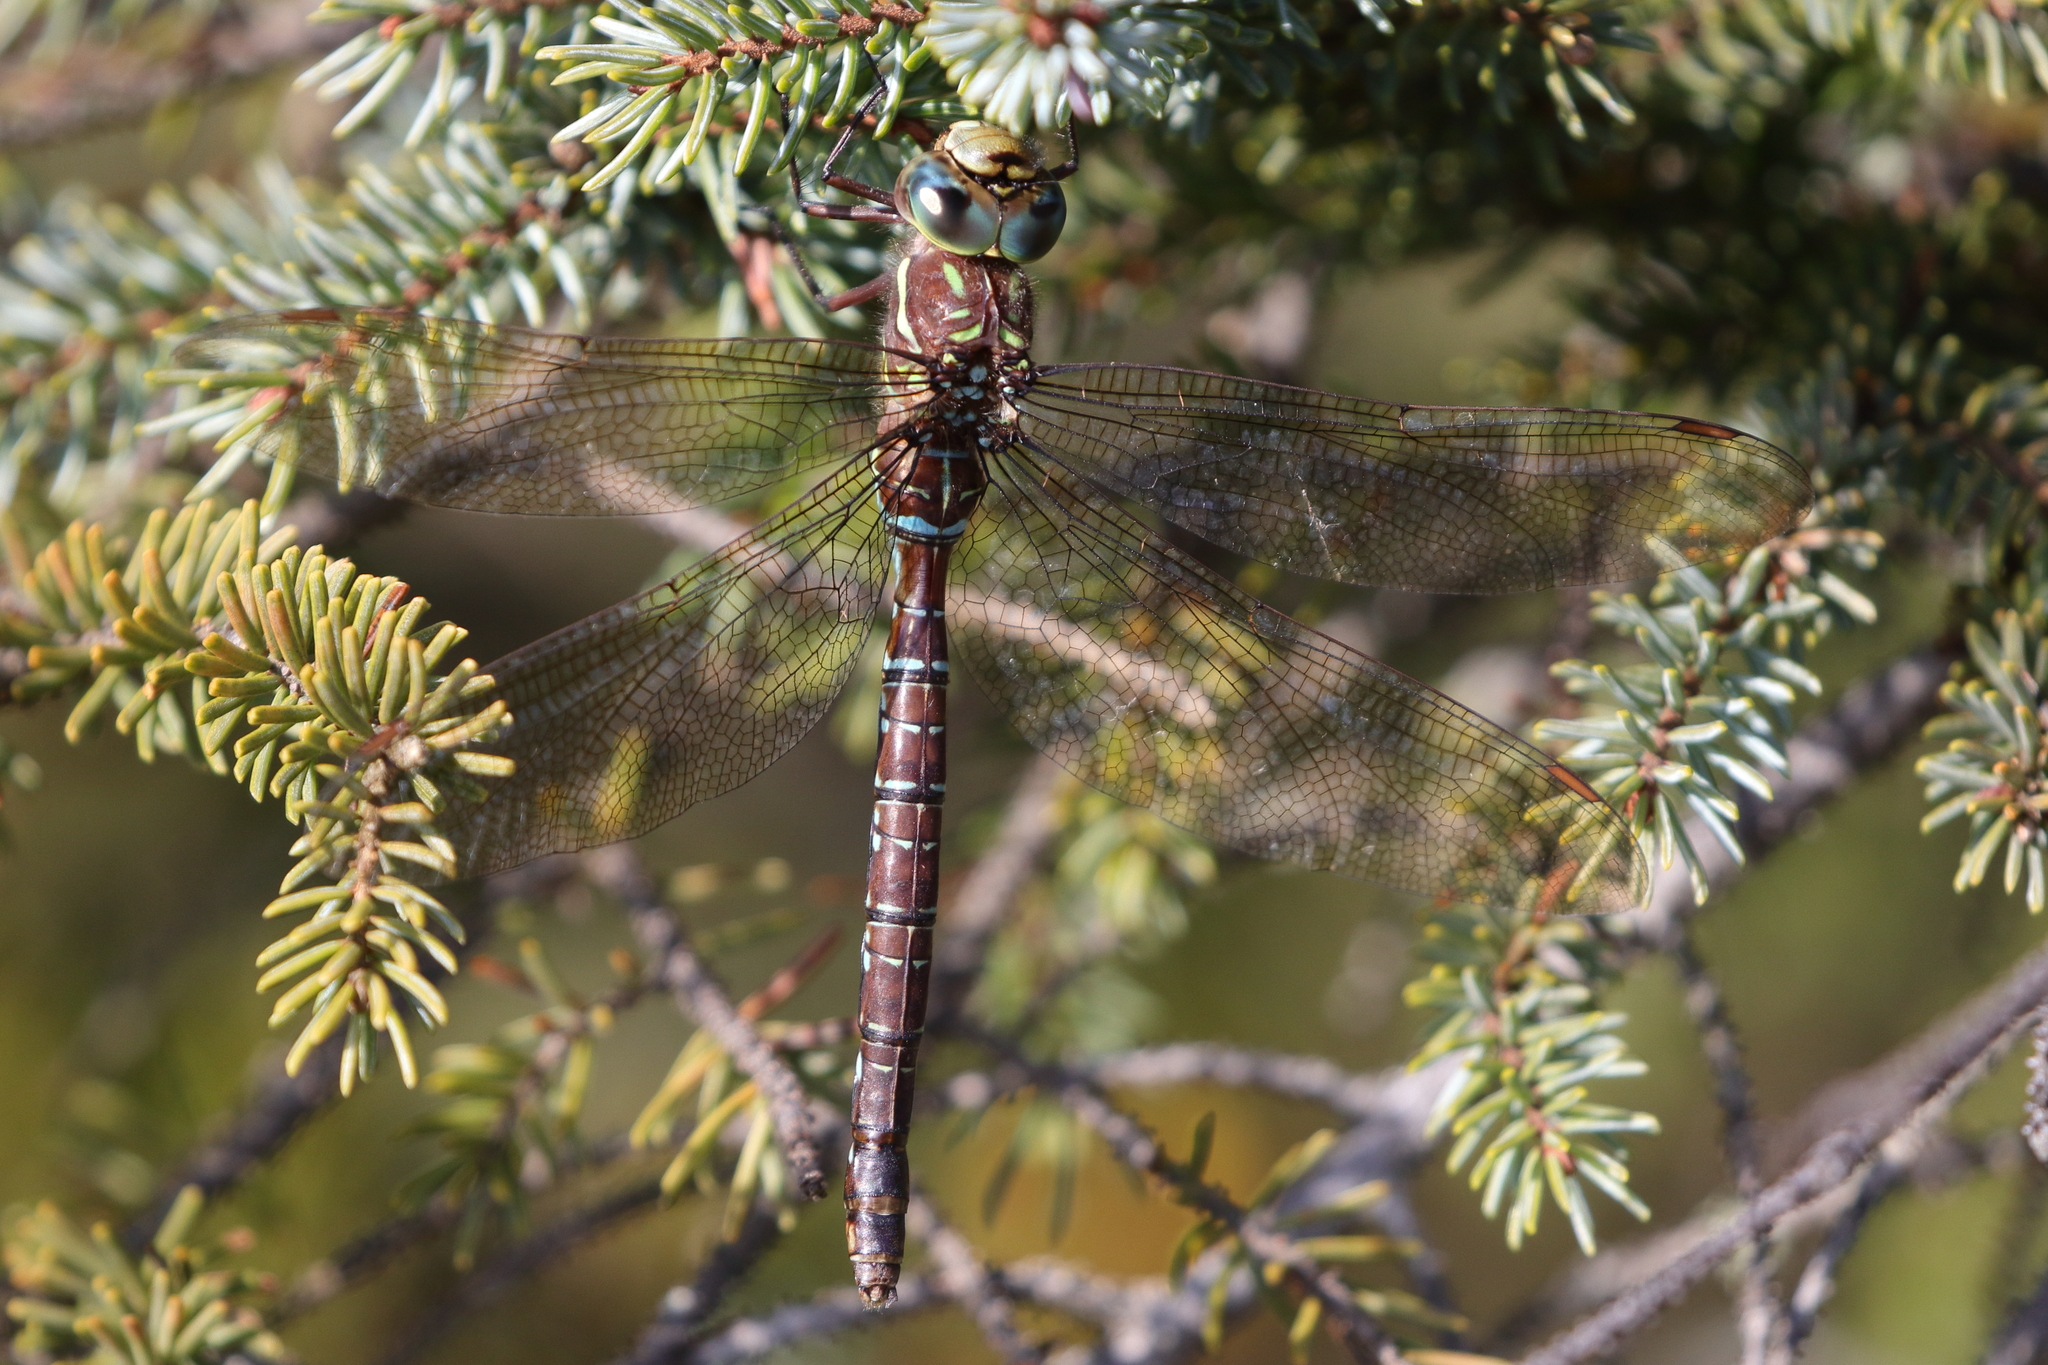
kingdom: Animalia
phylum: Arthropoda
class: Insecta
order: Odonata
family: Aeshnidae
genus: Aeshna
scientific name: Aeshna umbrosa
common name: Shadow darner
